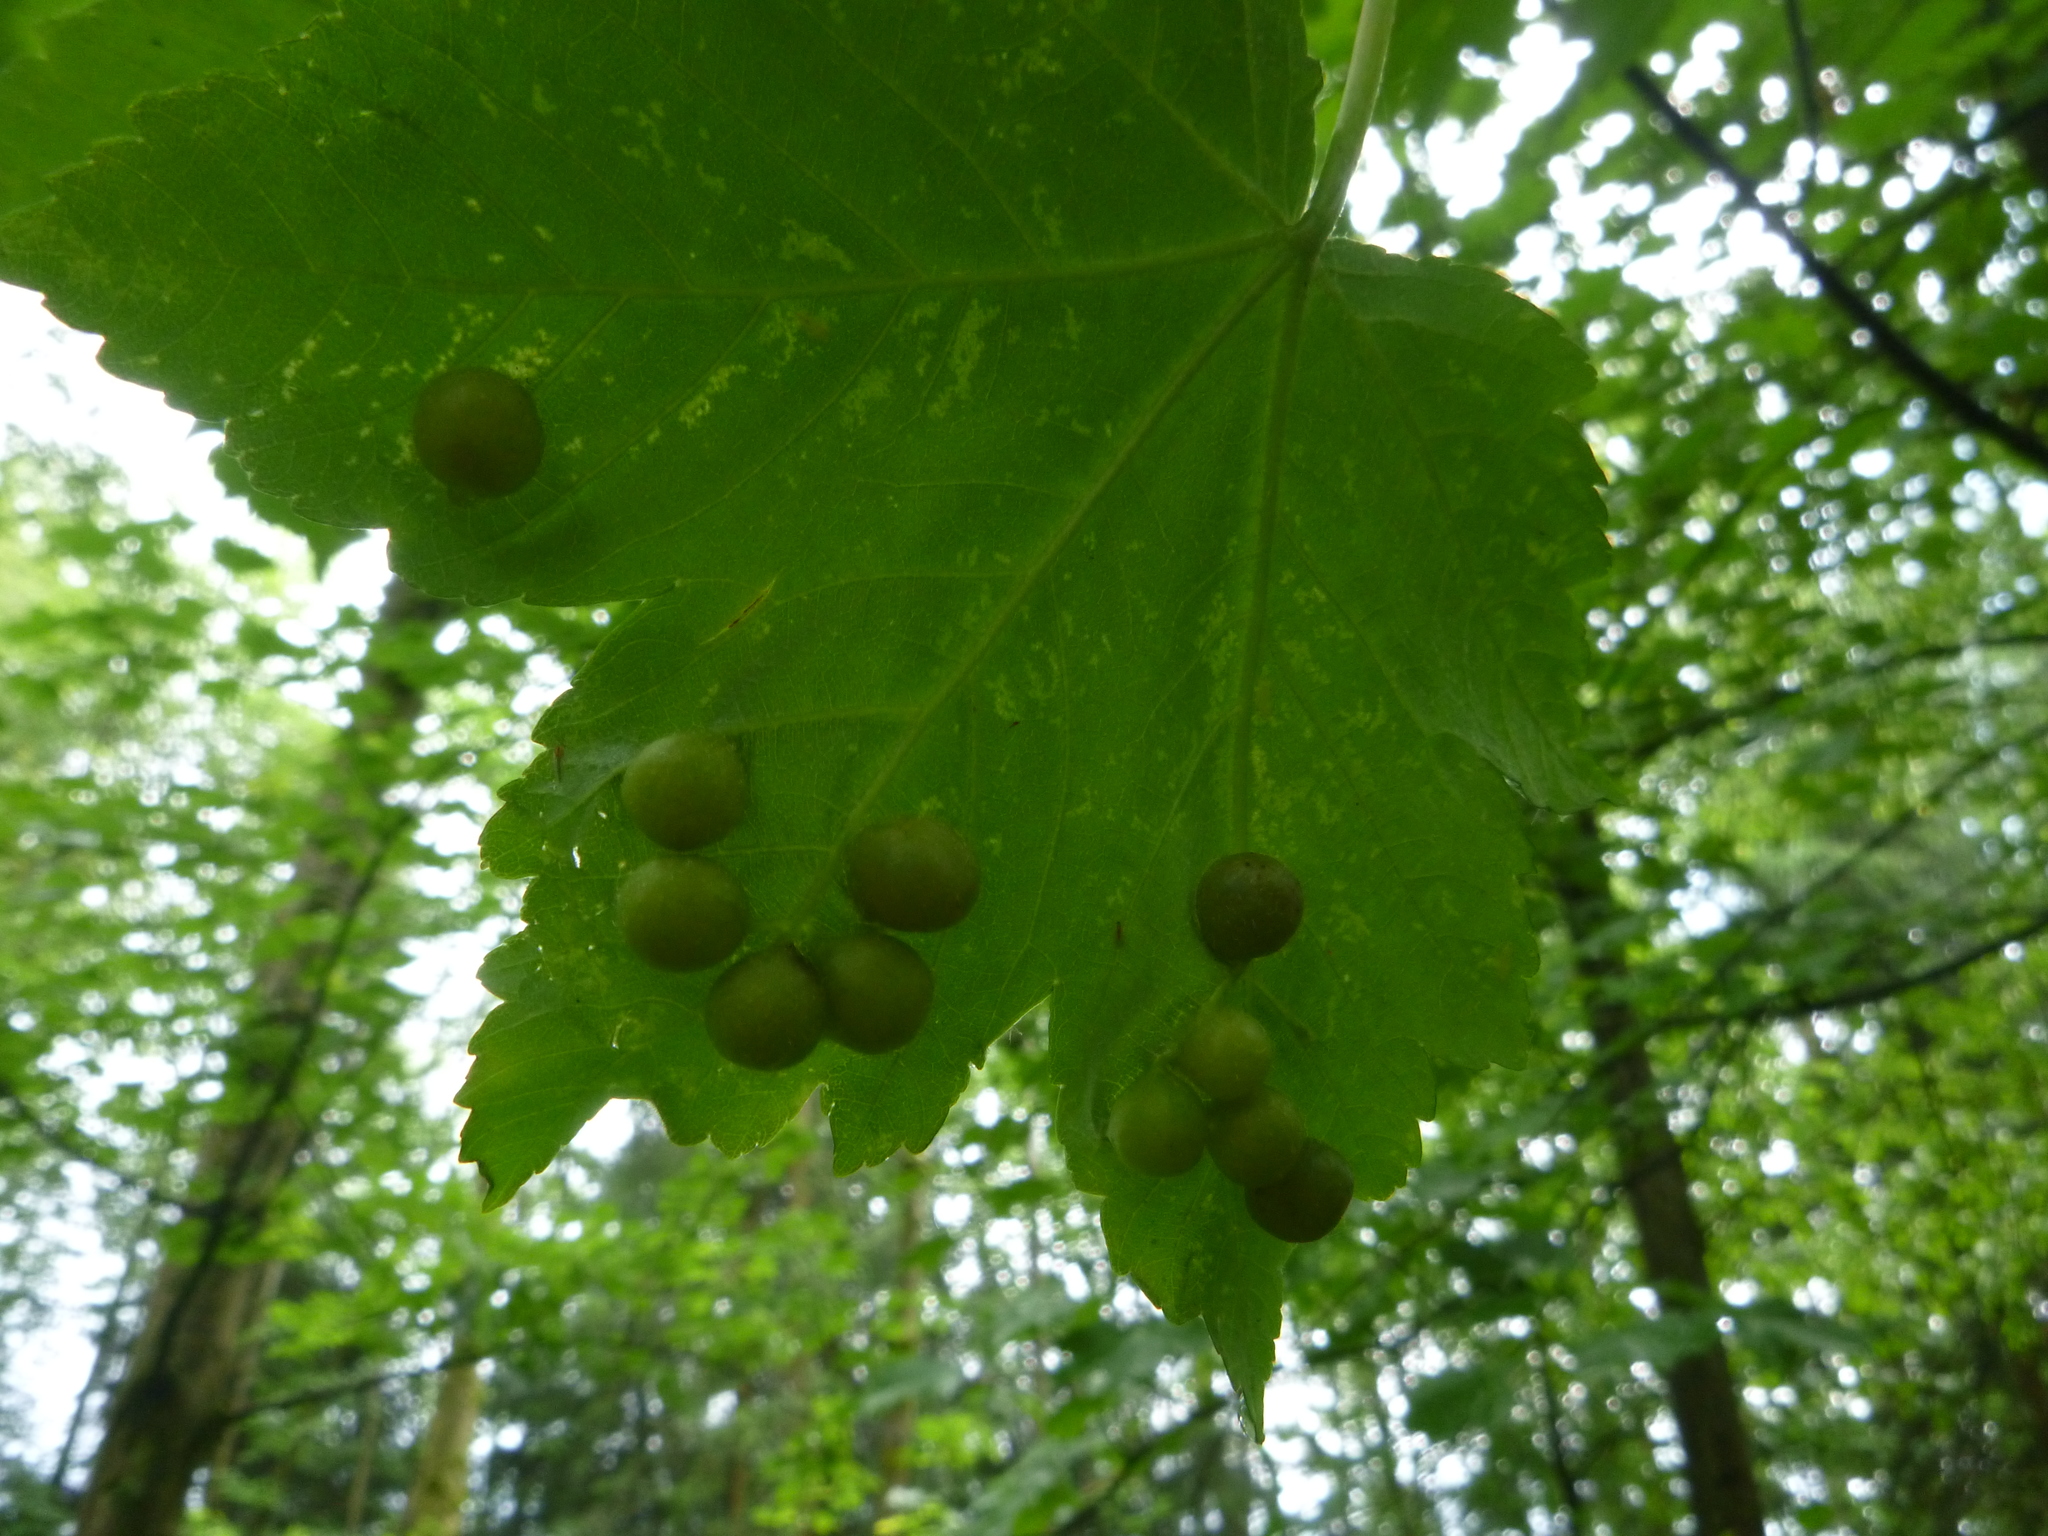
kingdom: Animalia
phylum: Arthropoda
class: Insecta
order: Hymenoptera
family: Cynipidae
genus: Pediaspis
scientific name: Pediaspis aceris
